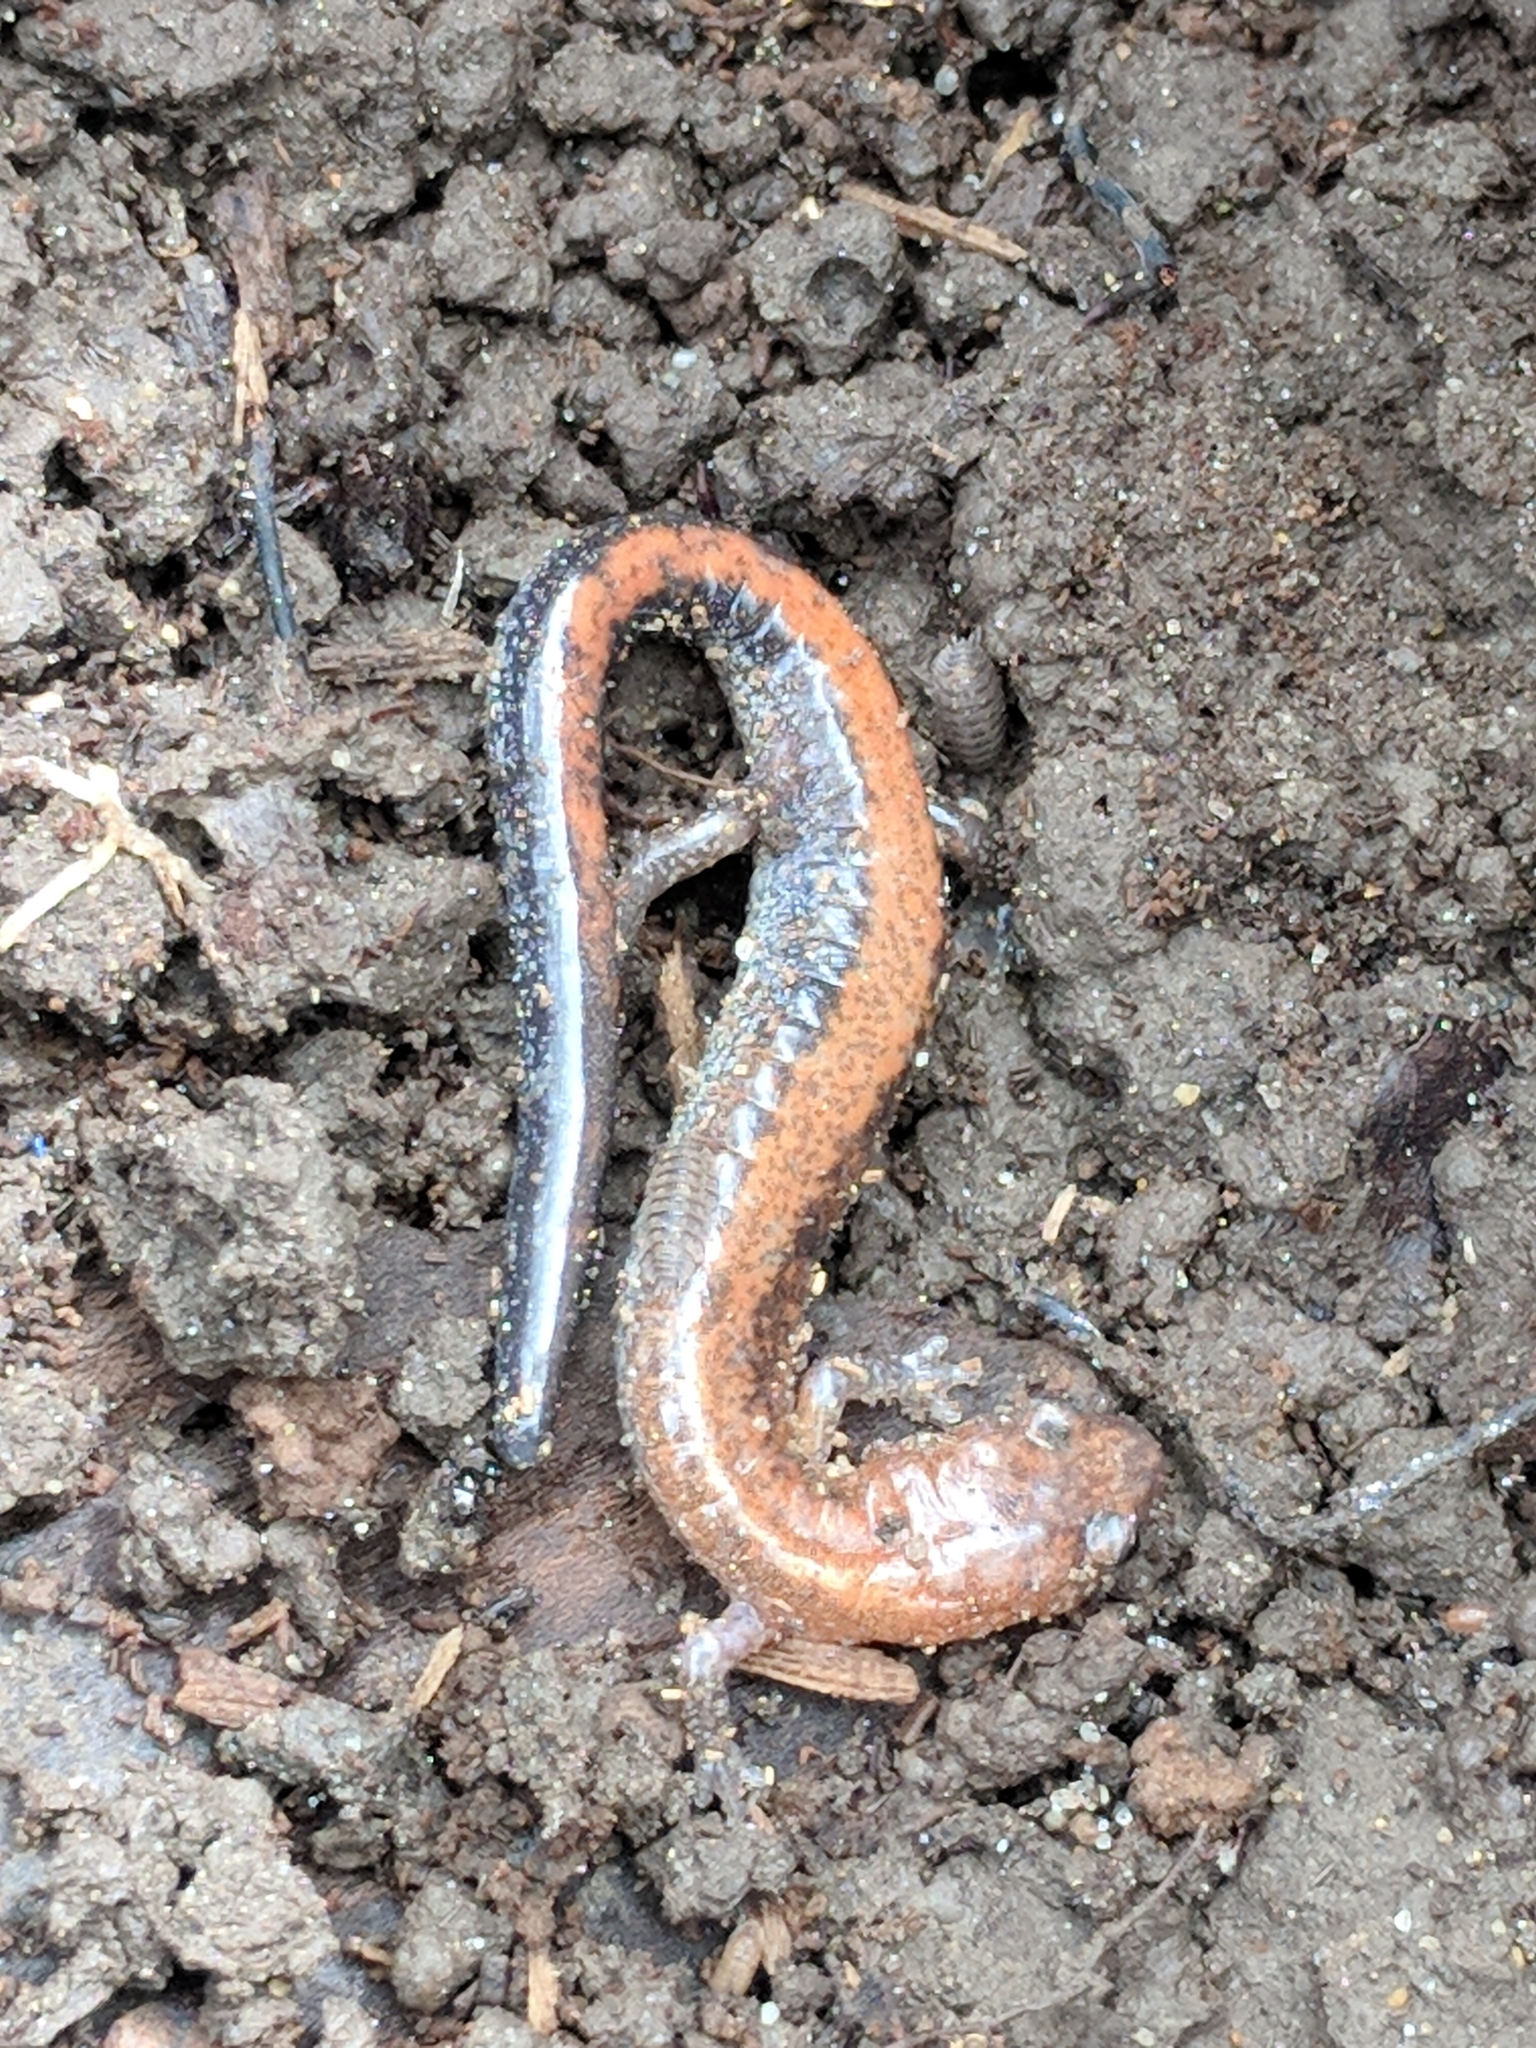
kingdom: Animalia
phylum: Chordata
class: Amphibia
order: Caudata
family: Plethodontidae
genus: Plethodon
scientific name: Plethodon cinereus
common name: Redback salamander
